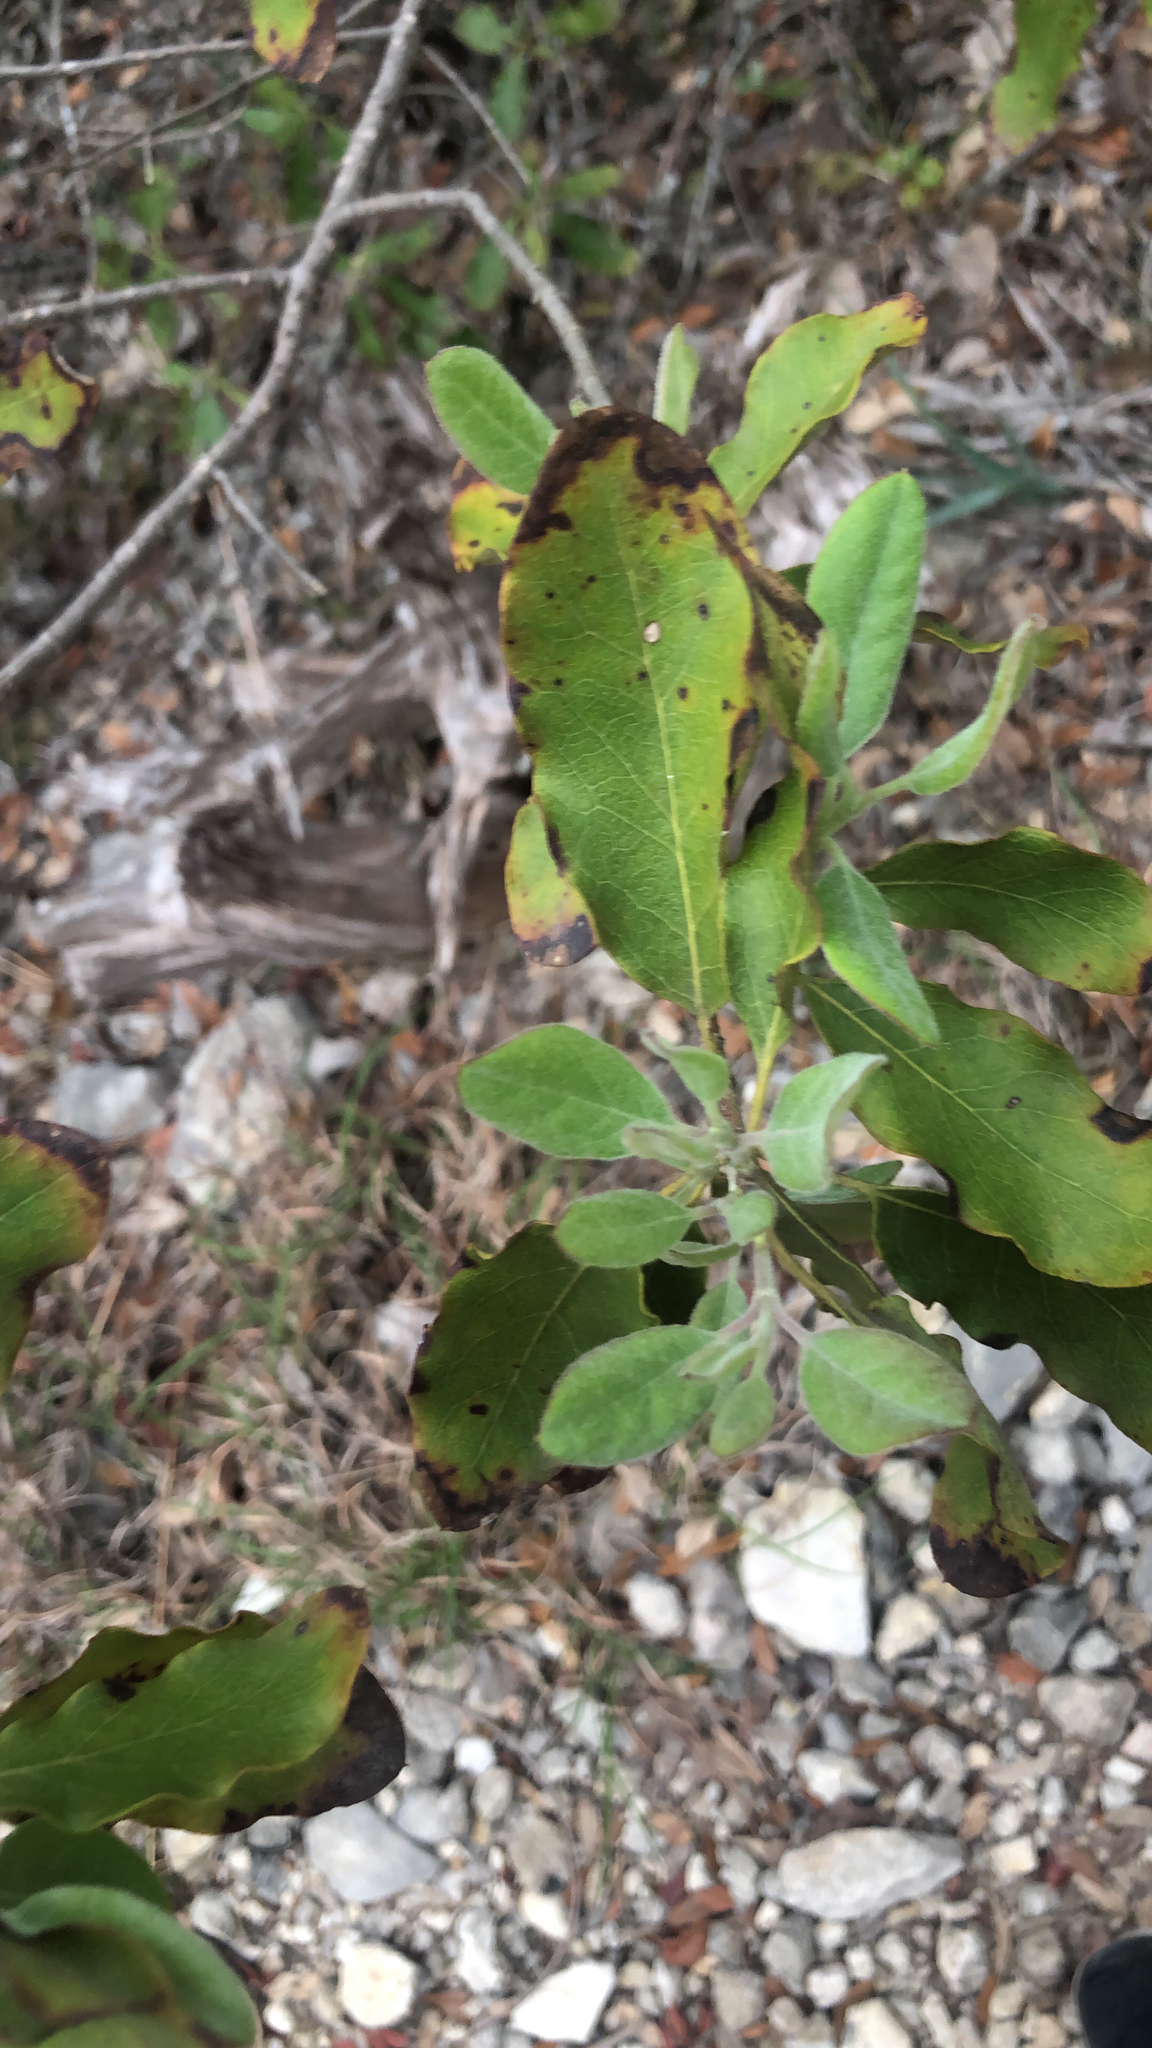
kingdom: Plantae
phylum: Tracheophyta
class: Magnoliopsida
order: Garryales
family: Garryaceae
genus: Garrya
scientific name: Garrya lindheimeri
